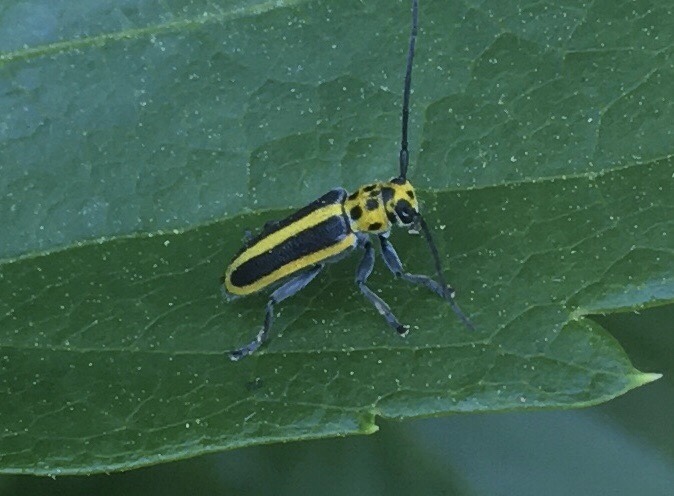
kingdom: Animalia
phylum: Arthropoda
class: Insecta
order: Coleoptera
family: Chrysomelidae
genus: Trirhabda
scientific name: Trirhabda canadensis
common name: Goldenrod leaf beetle
